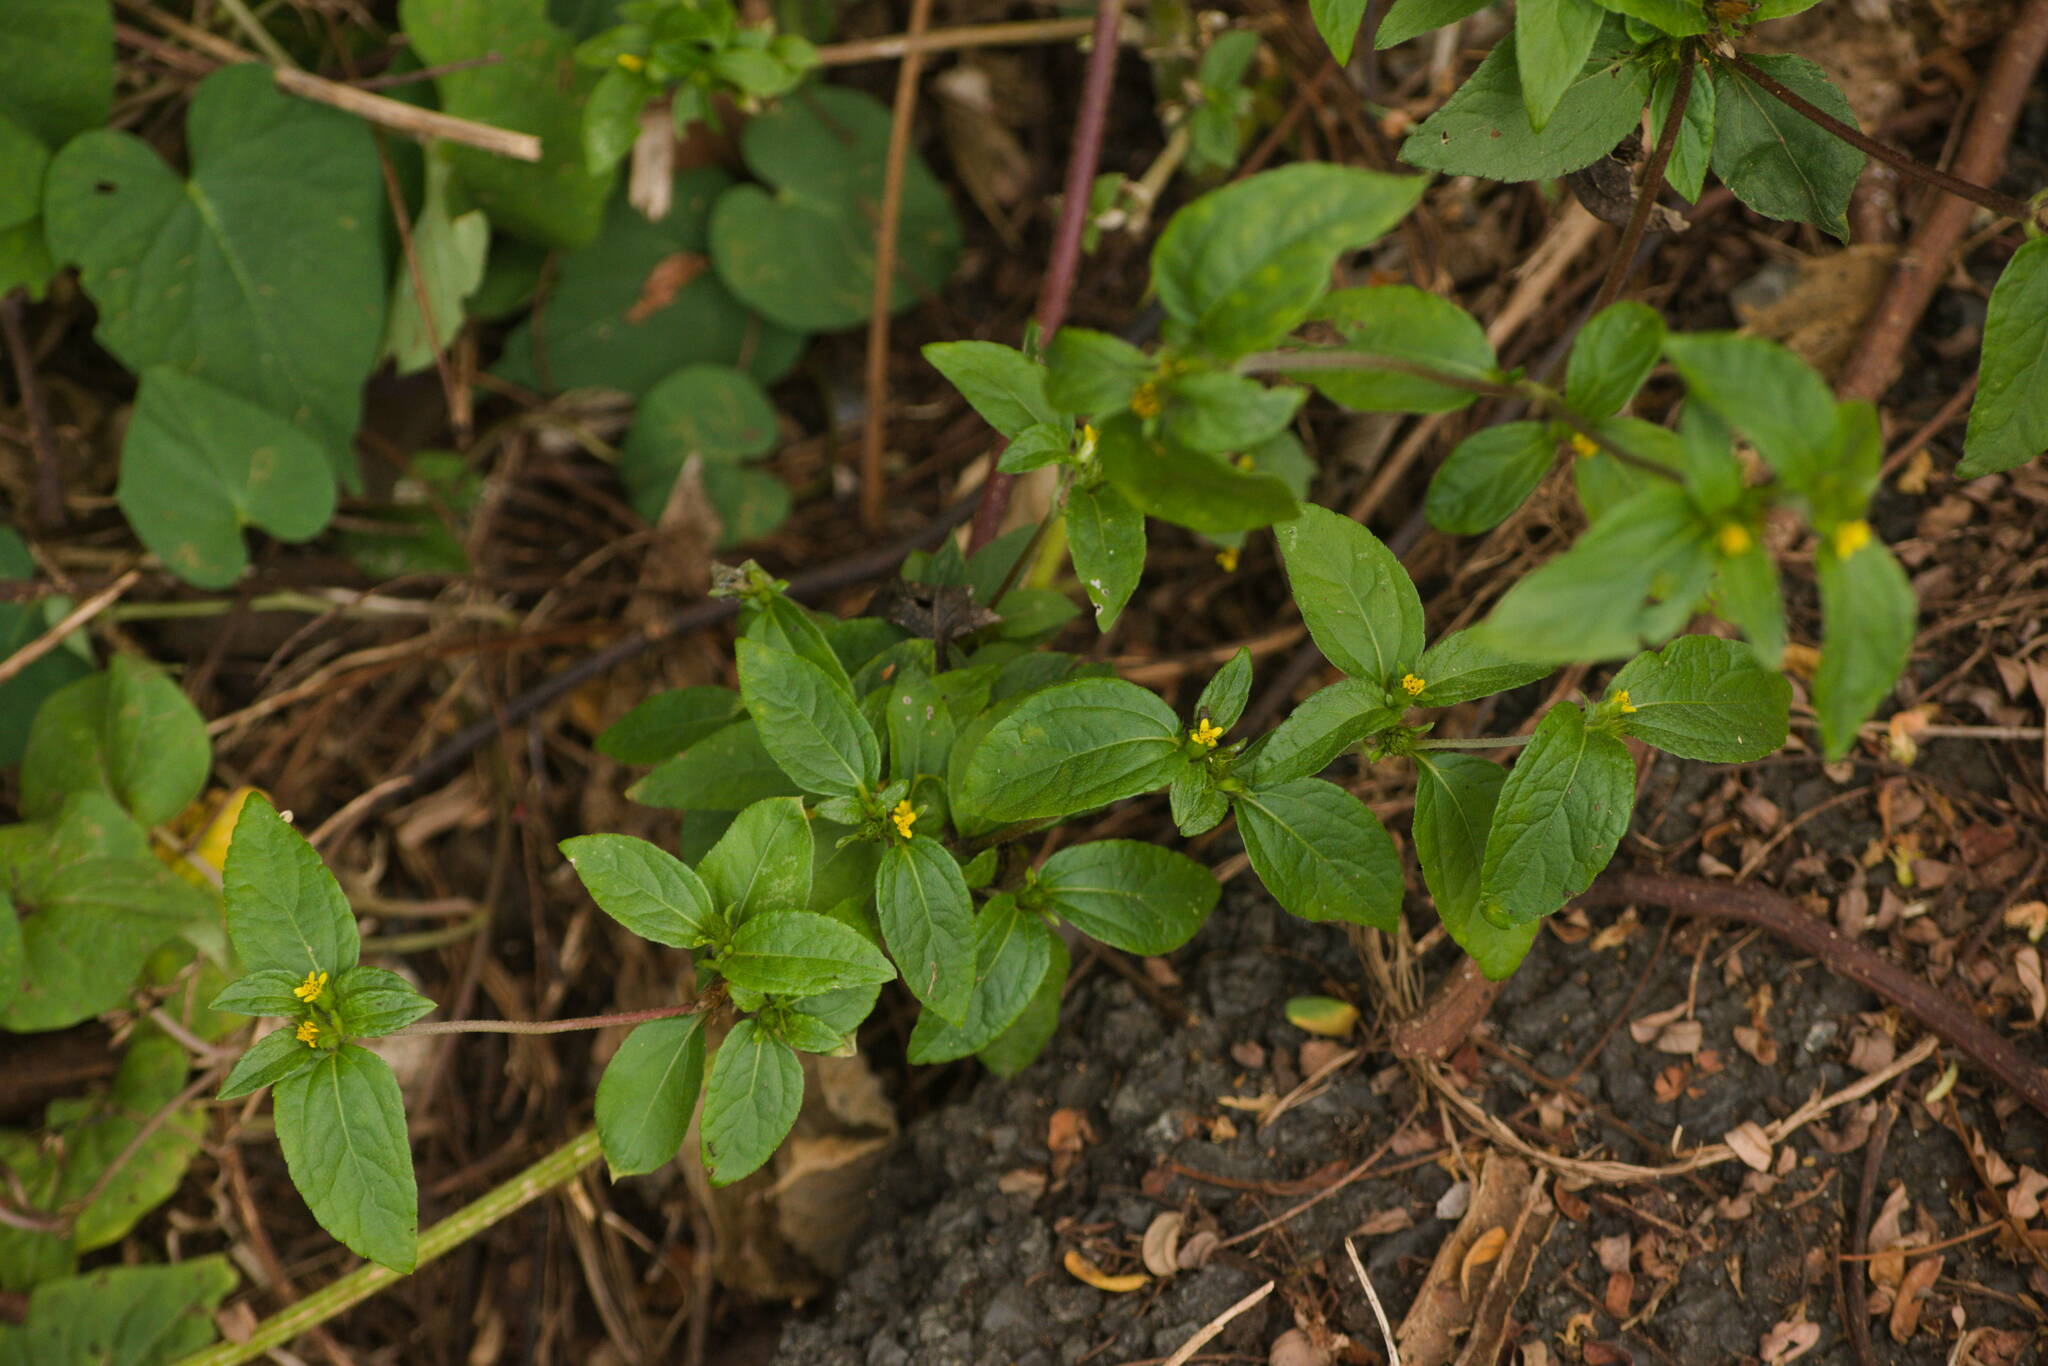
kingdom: Plantae
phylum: Tracheophyta
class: Magnoliopsida
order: Asterales
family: Asteraceae
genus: Synedrella
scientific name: Synedrella nodiflora
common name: Nodeweed
